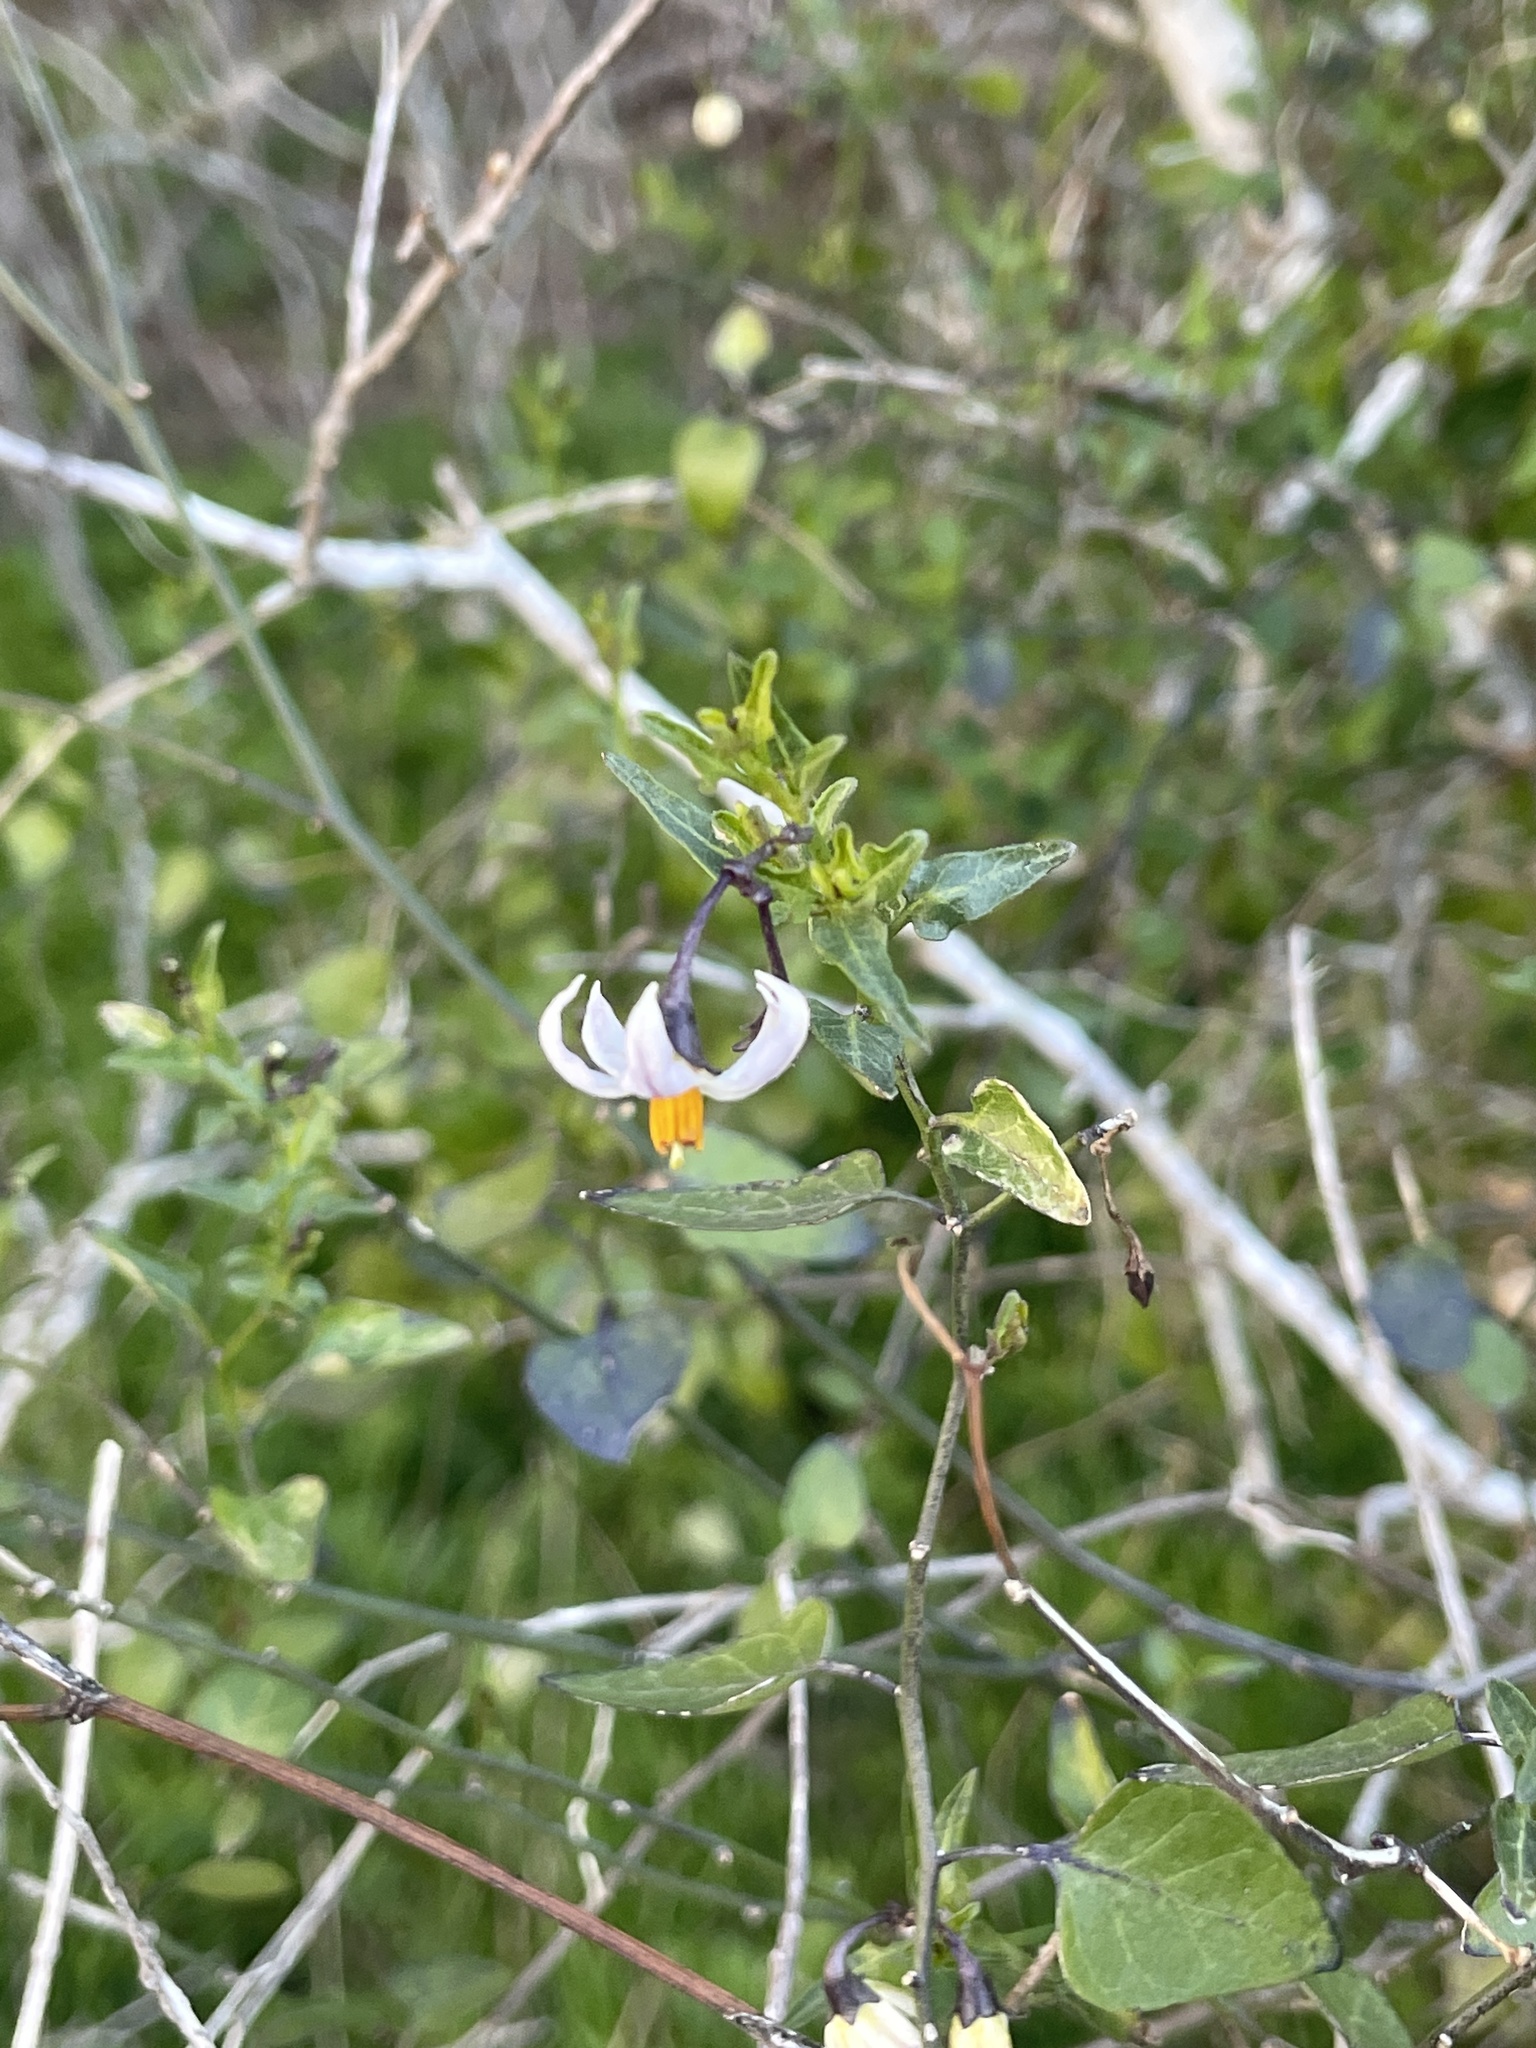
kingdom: Plantae
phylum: Tracheophyta
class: Magnoliopsida
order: Solanales
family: Solanaceae
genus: Solanum
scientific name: Solanum triquetrum
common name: Texas nightshade
